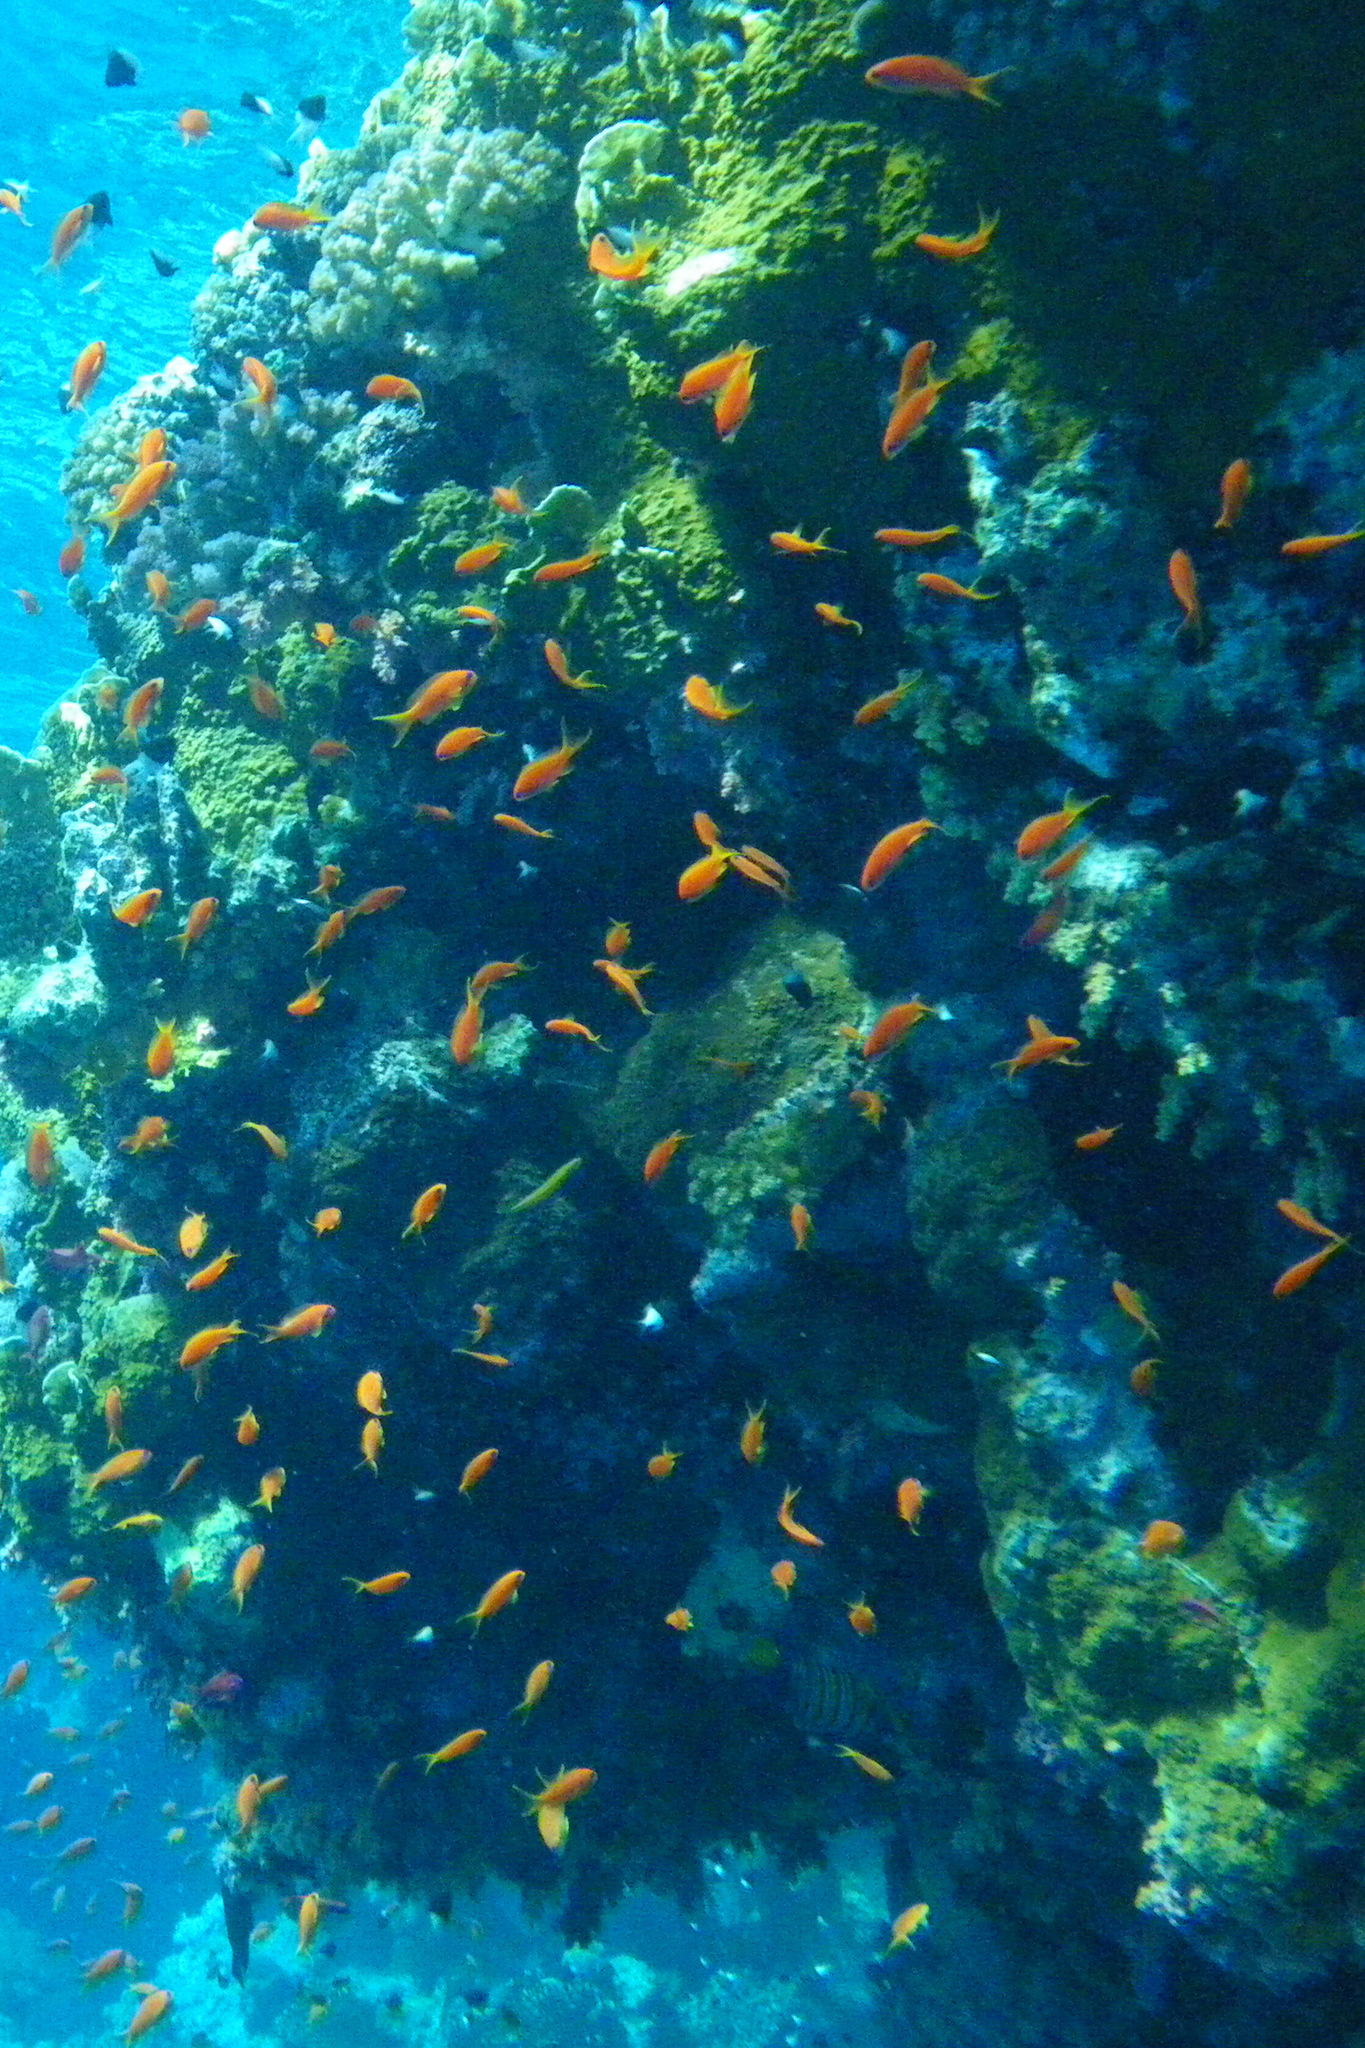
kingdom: Animalia
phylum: Chordata
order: Perciformes
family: Serranidae
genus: Pseudanthias
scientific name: Pseudanthias squamipinnis
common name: Scalefin anthias
